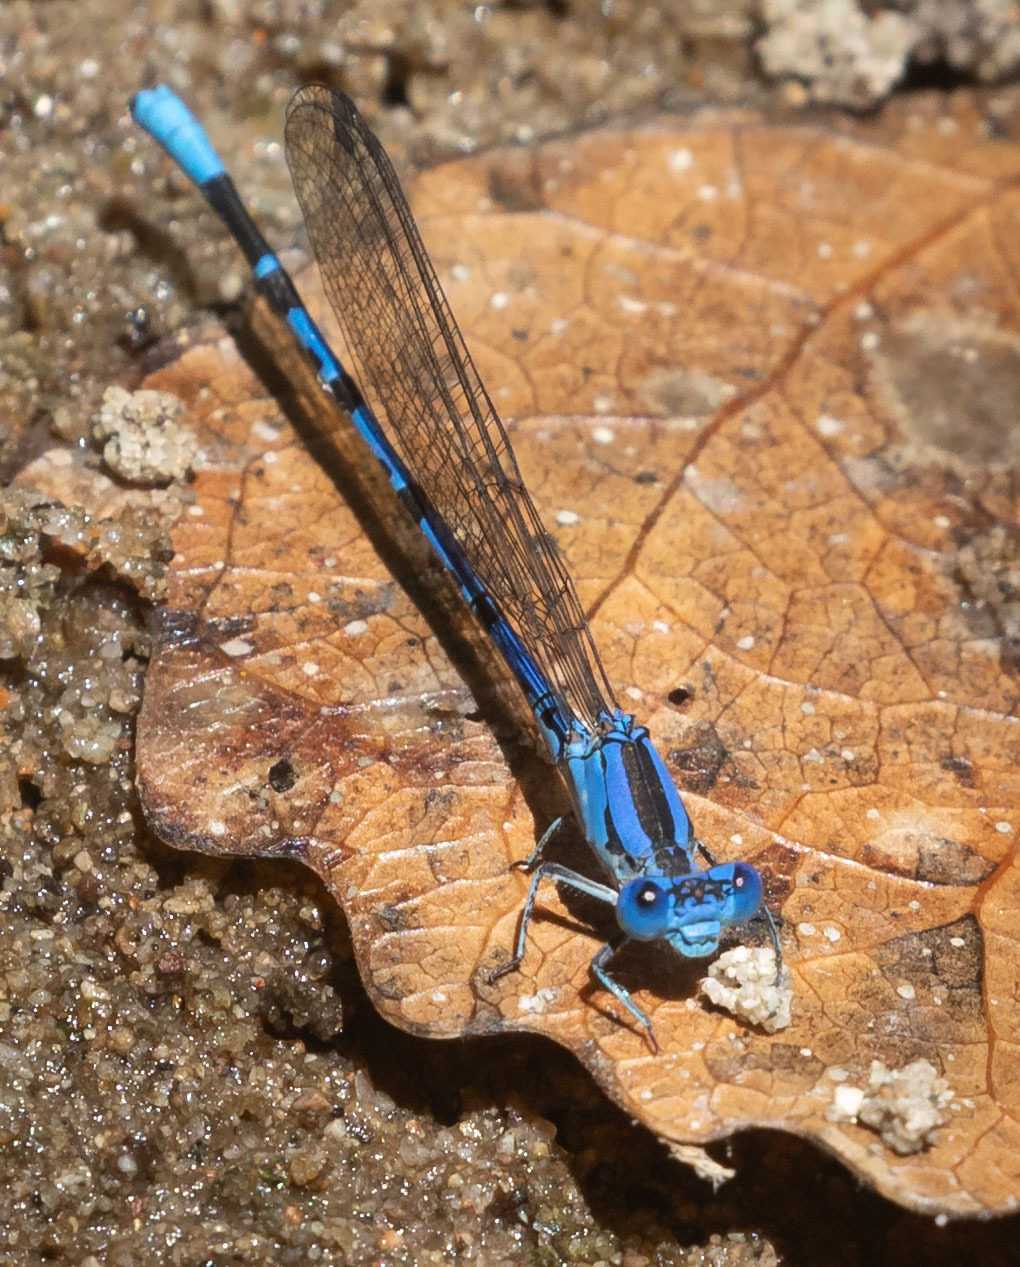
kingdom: Animalia
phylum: Arthropoda
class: Insecta
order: Odonata
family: Coenagrionidae
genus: Argia
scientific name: Argia vivida
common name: Vivid dancer
